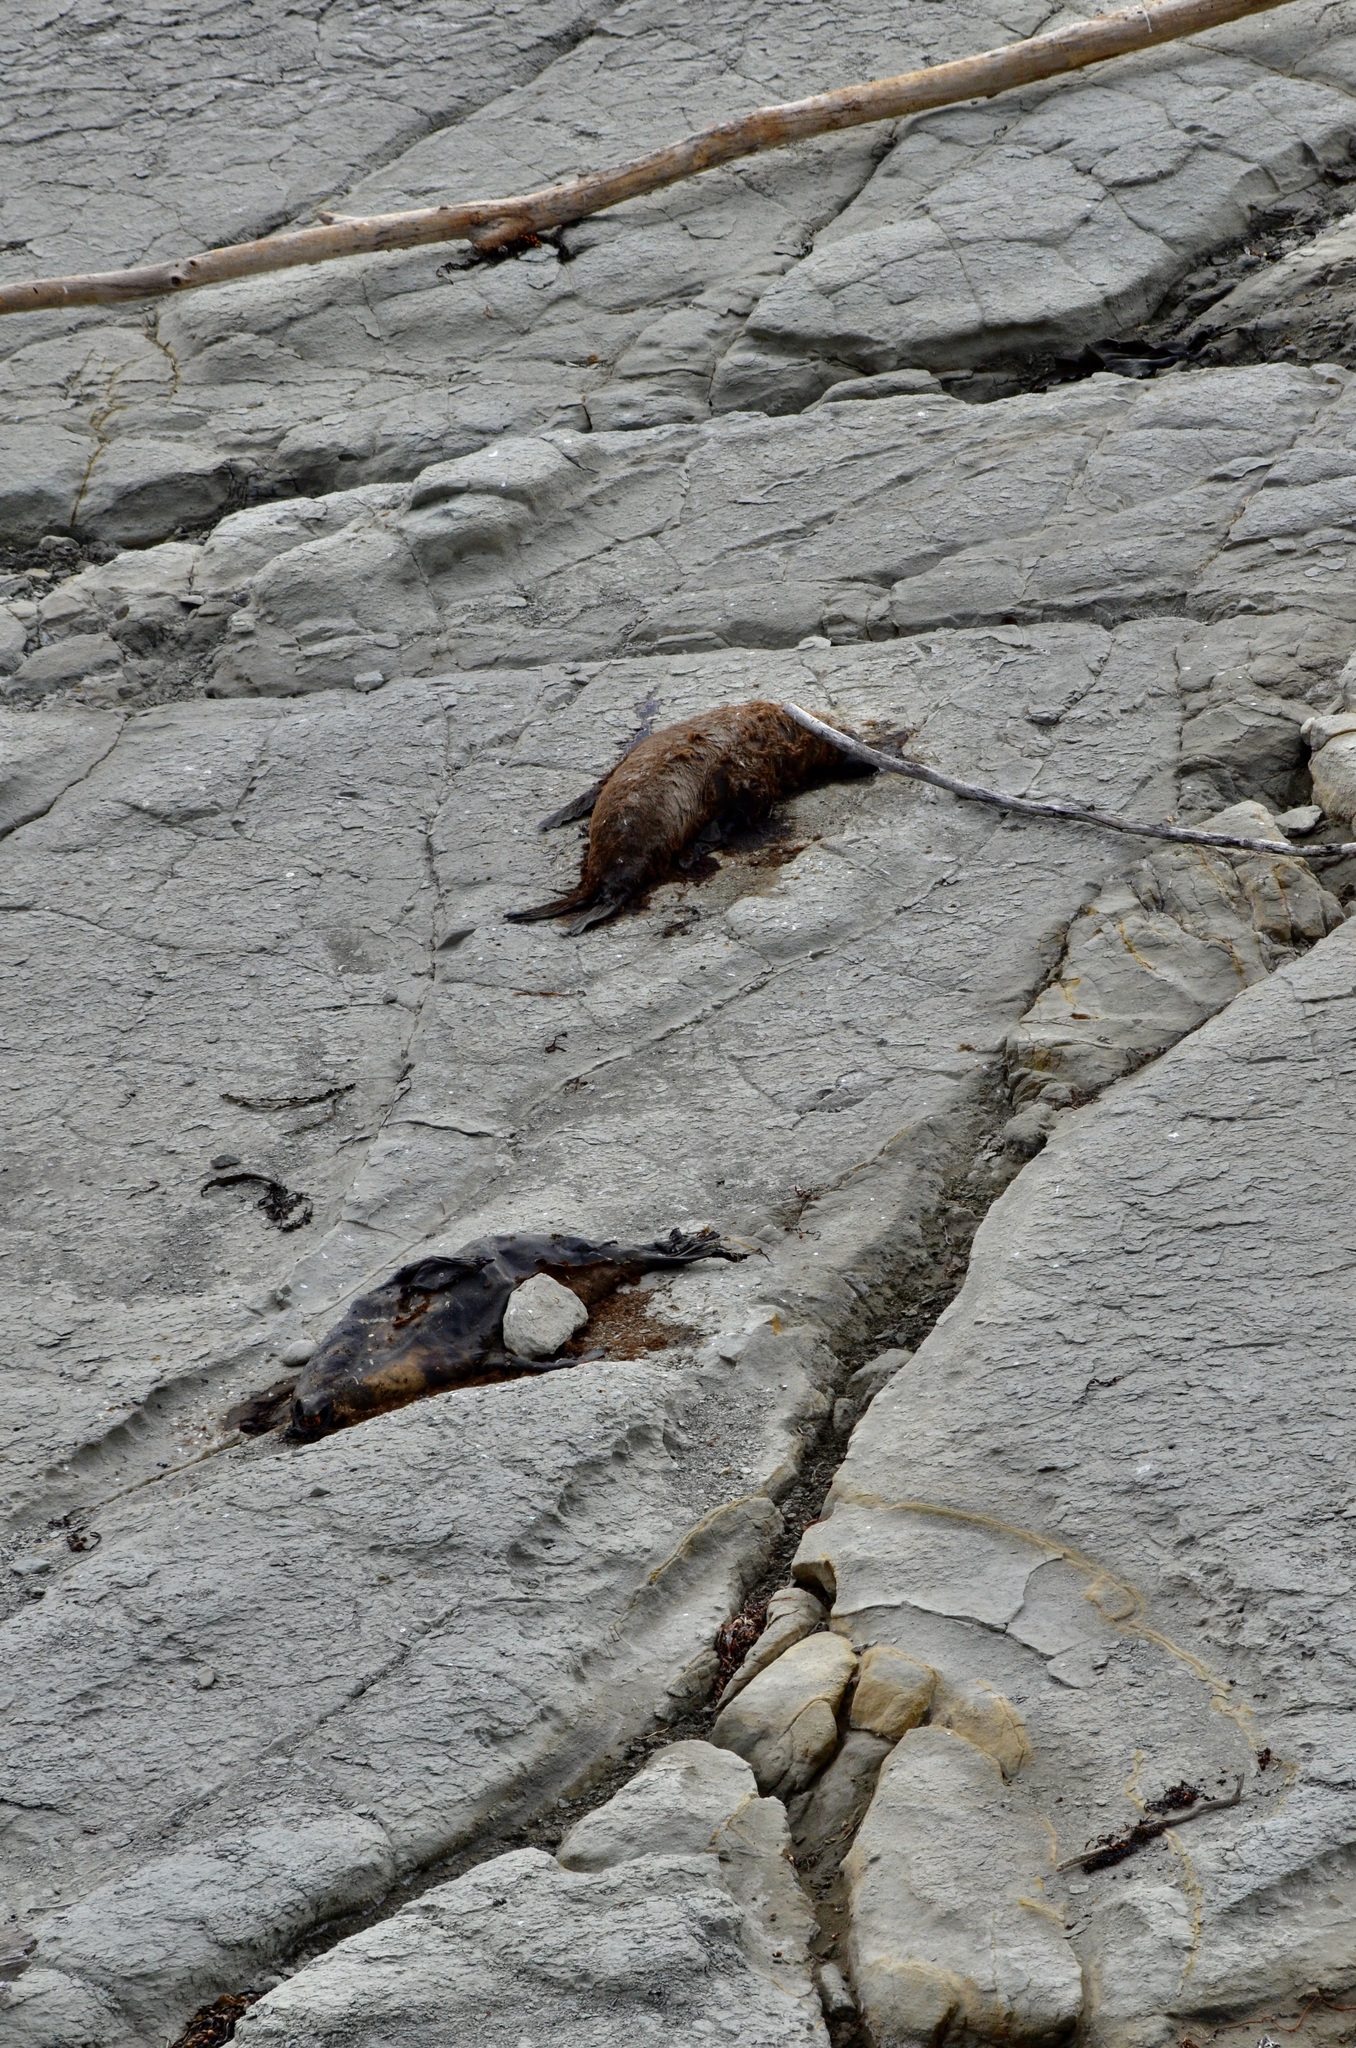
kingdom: Animalia
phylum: Chordata
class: Mammalia
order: Carnivora
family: Otariidae
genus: Arctocephalus
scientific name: Arctocephalus forsteri
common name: New zealand fur seal
